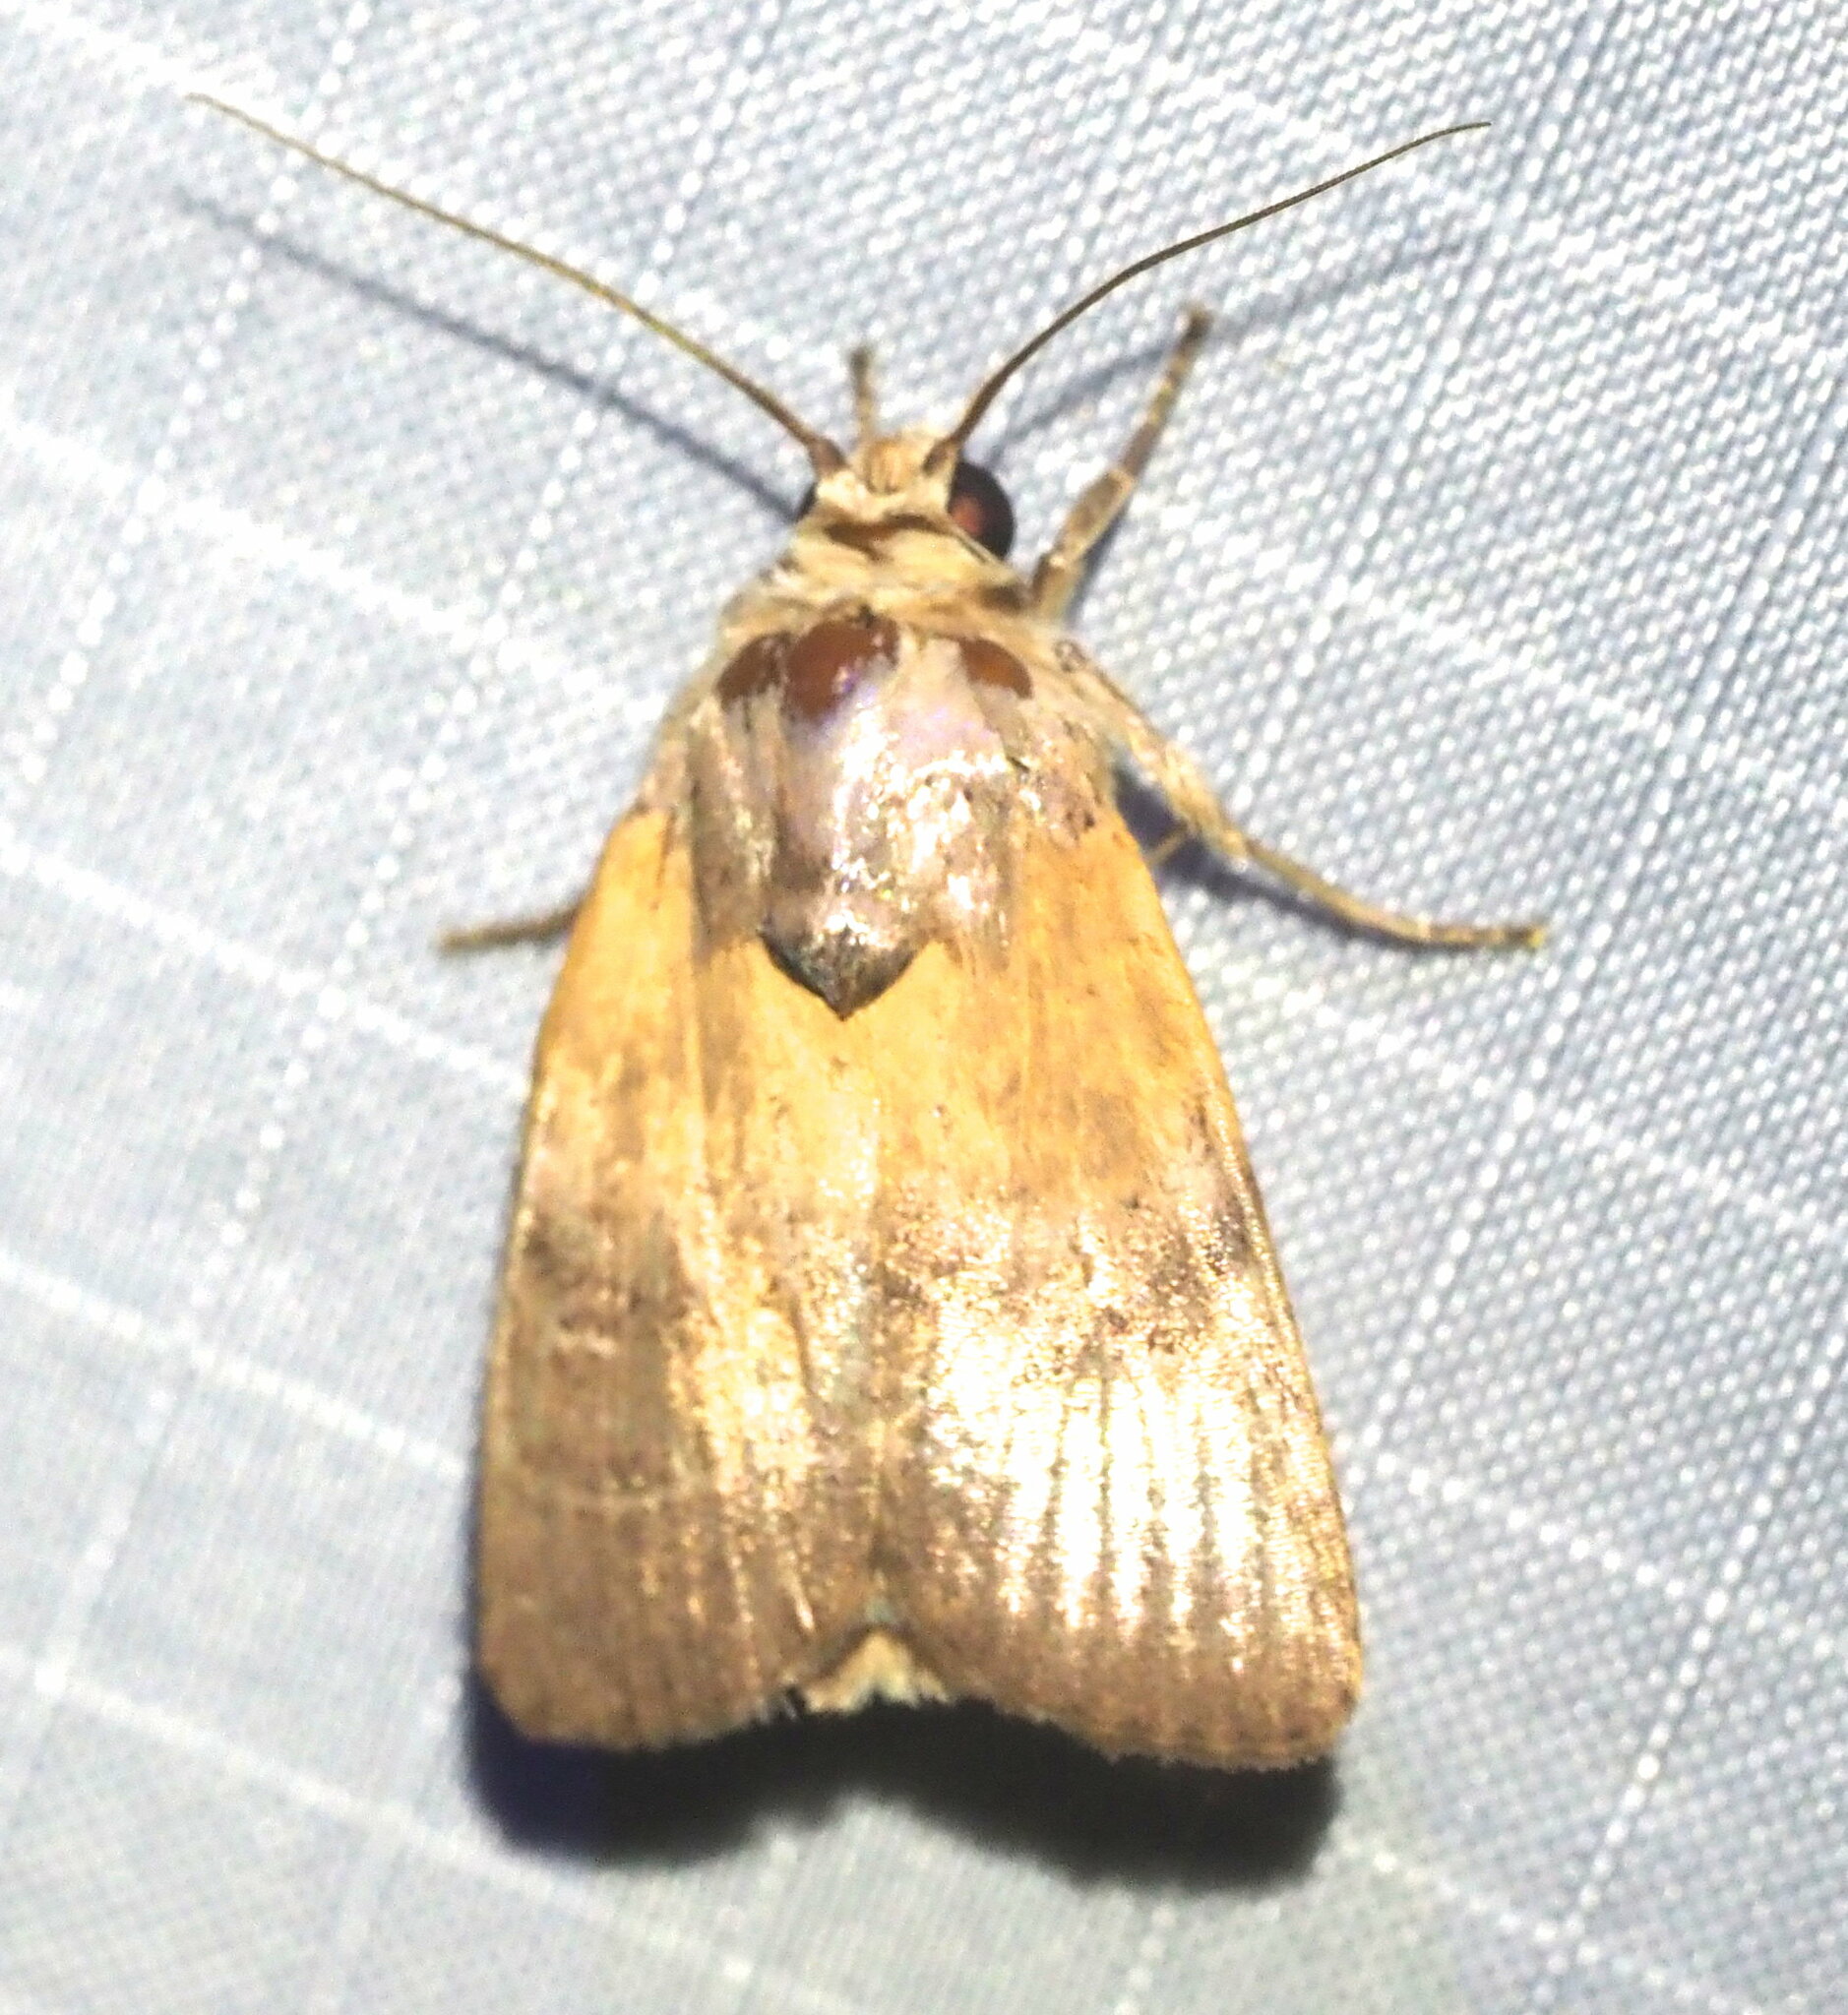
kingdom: Animalia
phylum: Arthropoda
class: Insecta
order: Lepidoptera
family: Noctuidae
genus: Athetis
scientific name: Athetis thoracica
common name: Cutworm
